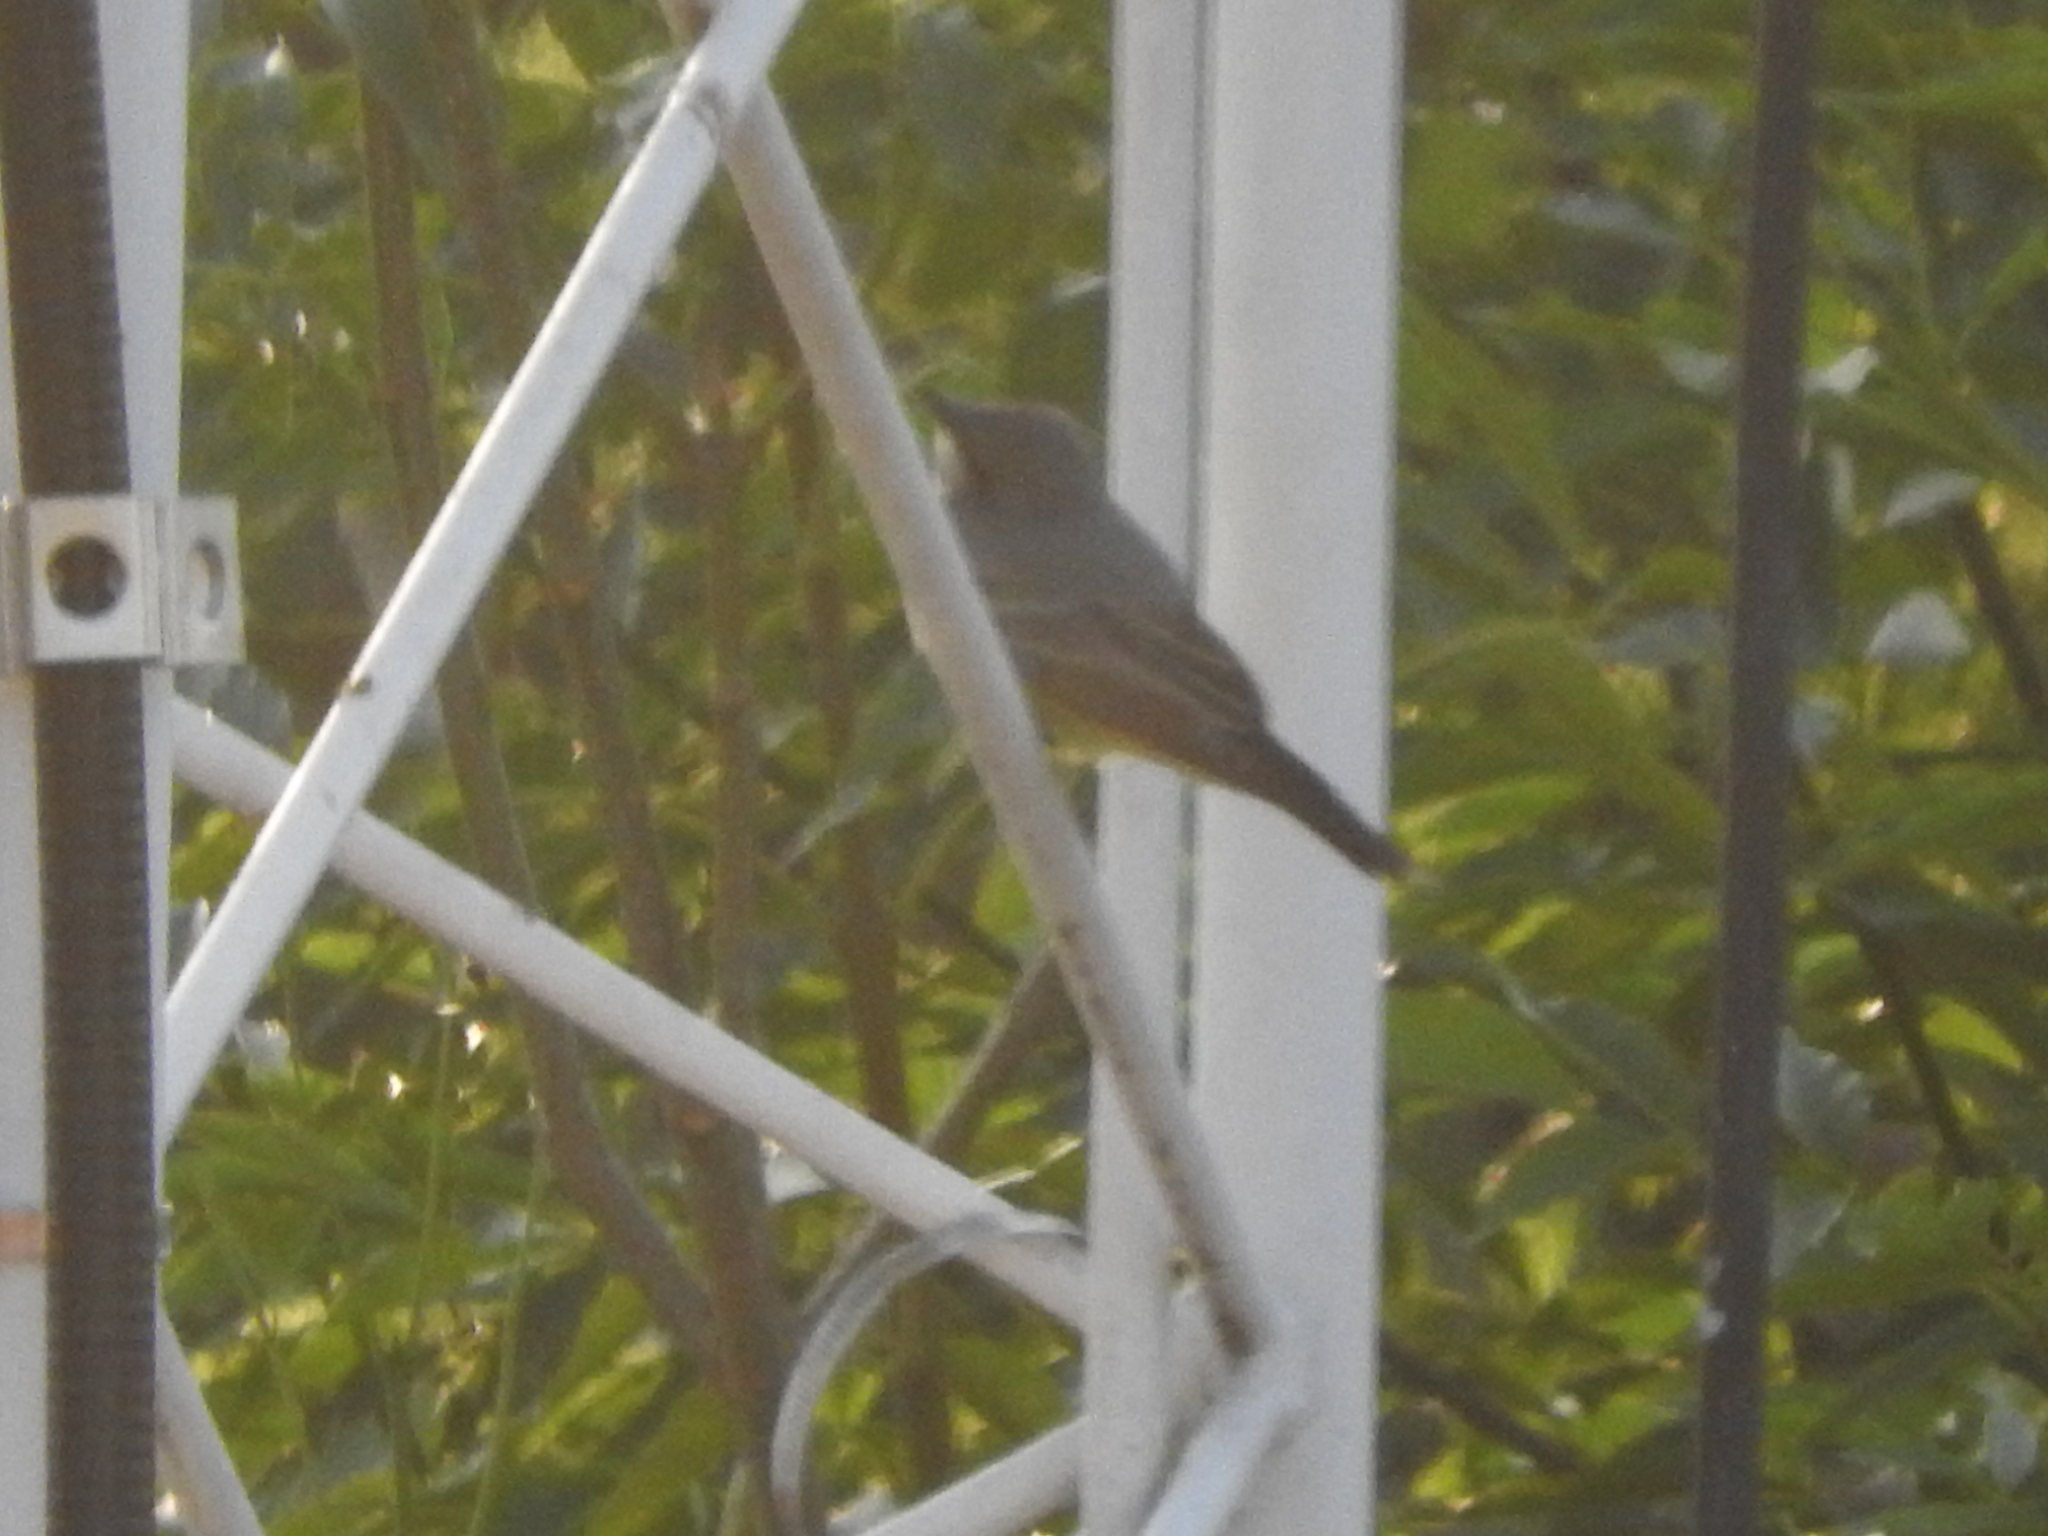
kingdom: Animalia
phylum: Chordata
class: Aves
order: Passeriformes
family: Tyrannidae
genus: Tyrannus
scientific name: Tyrannus vociferans
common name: Cassin's kingbird
